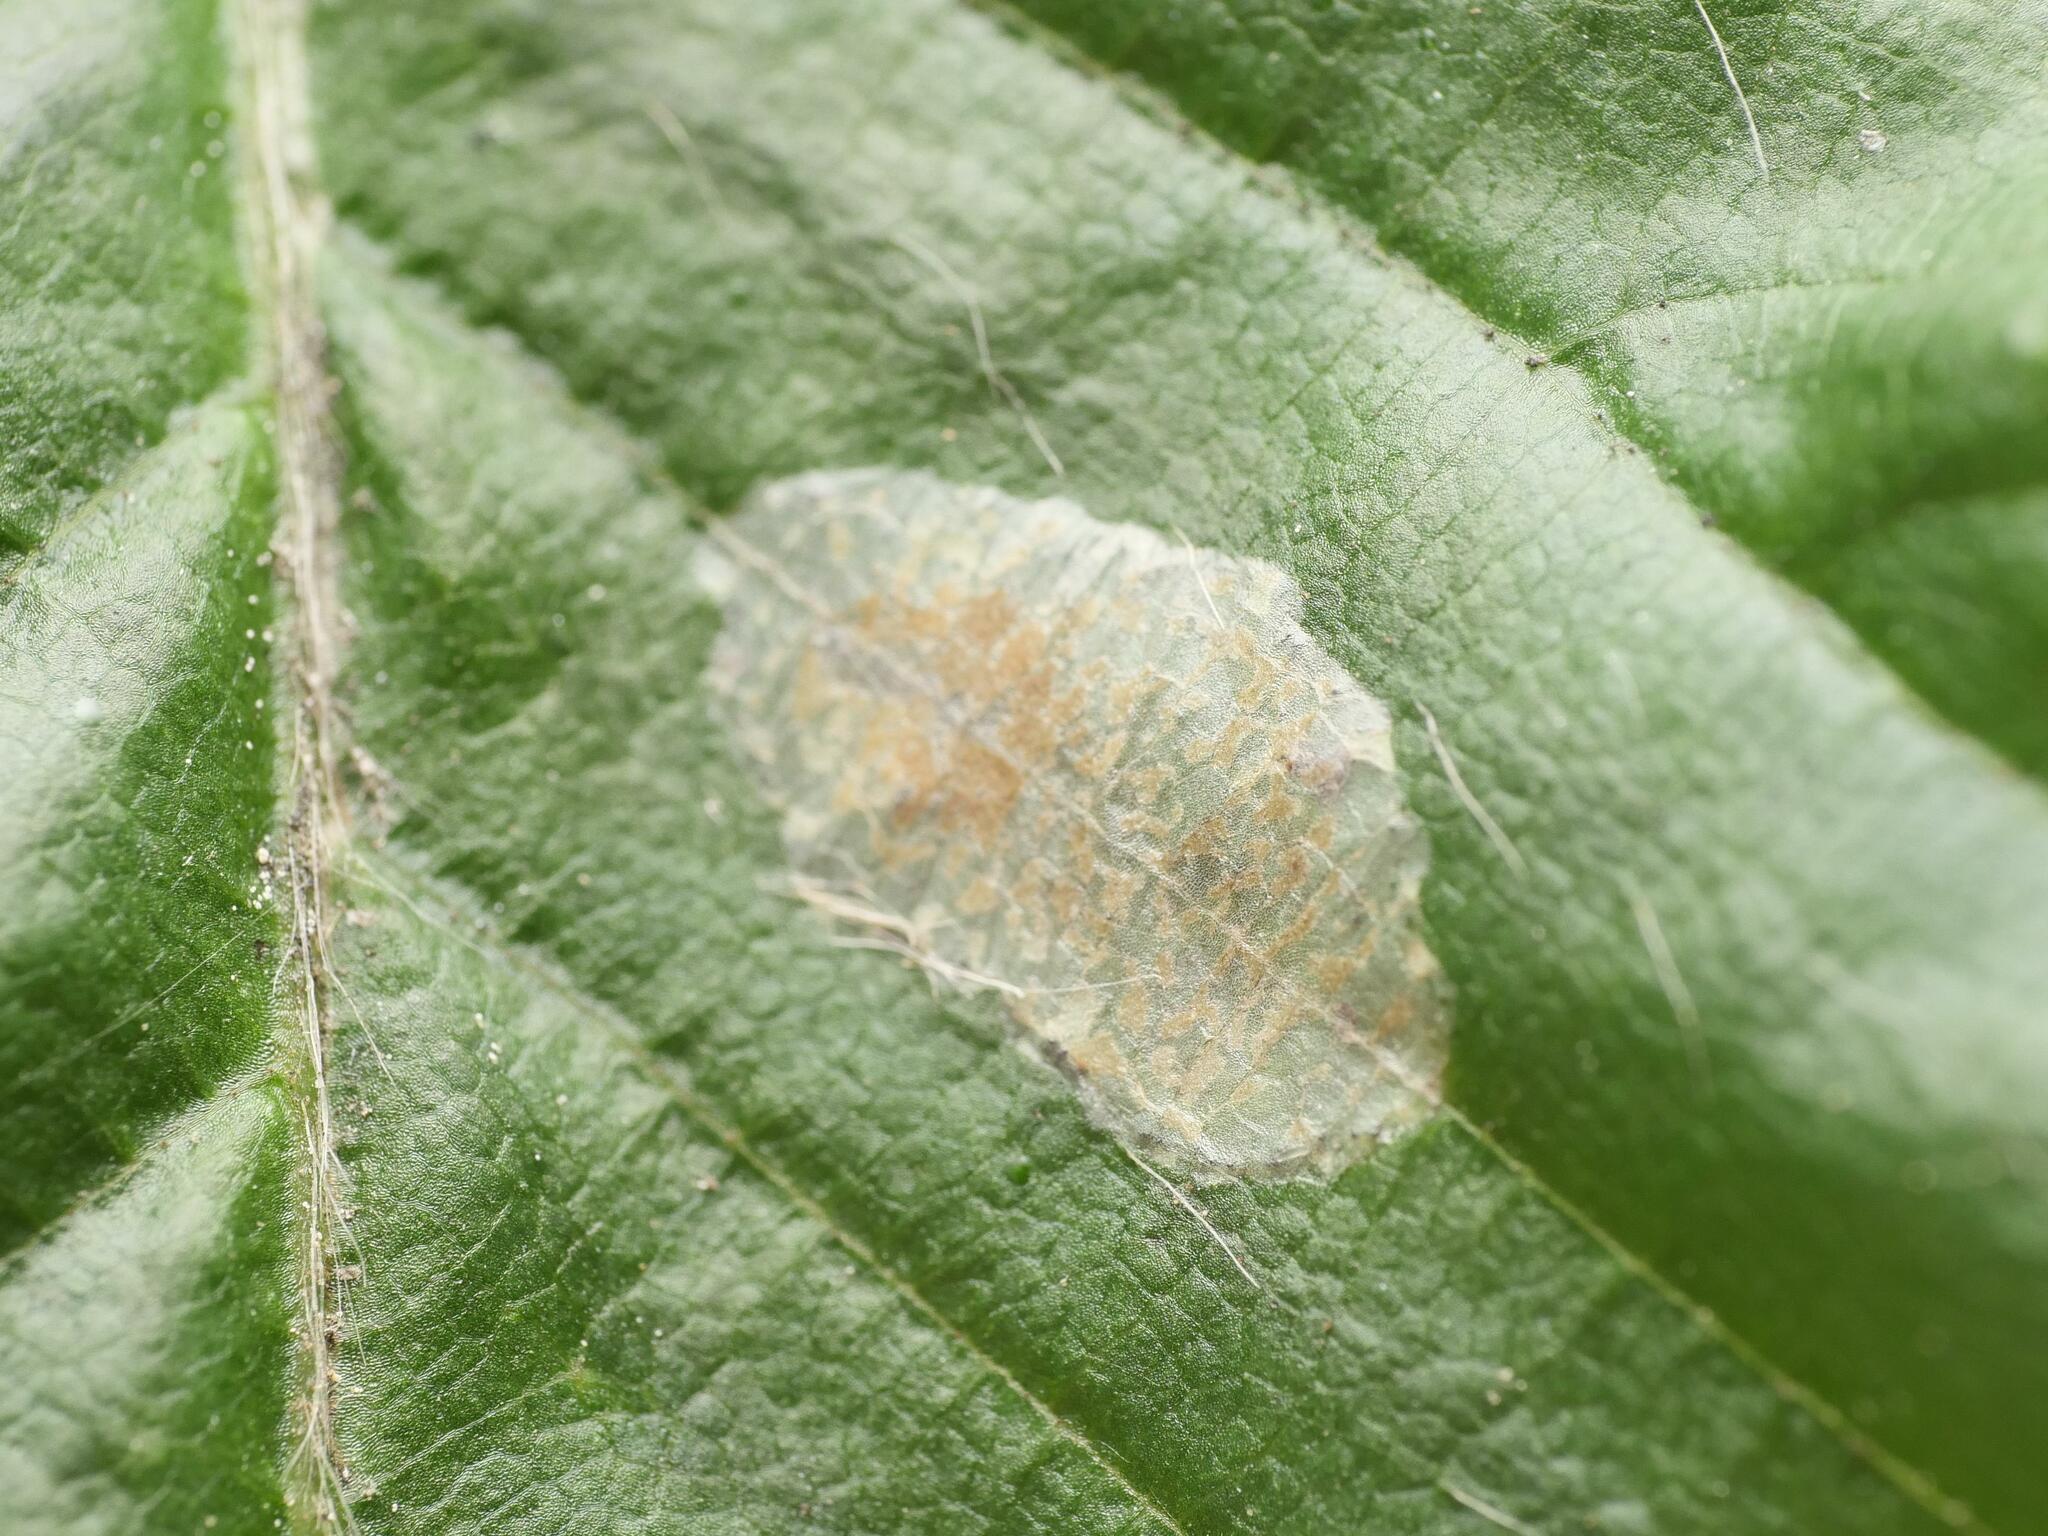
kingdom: Animalia
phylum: Arthropoda
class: Insecta
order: Lepidoptera
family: Gracillariidae
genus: Phyllonorycter
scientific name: Phyllonorycter esperella
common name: Dark hornbeam midget
